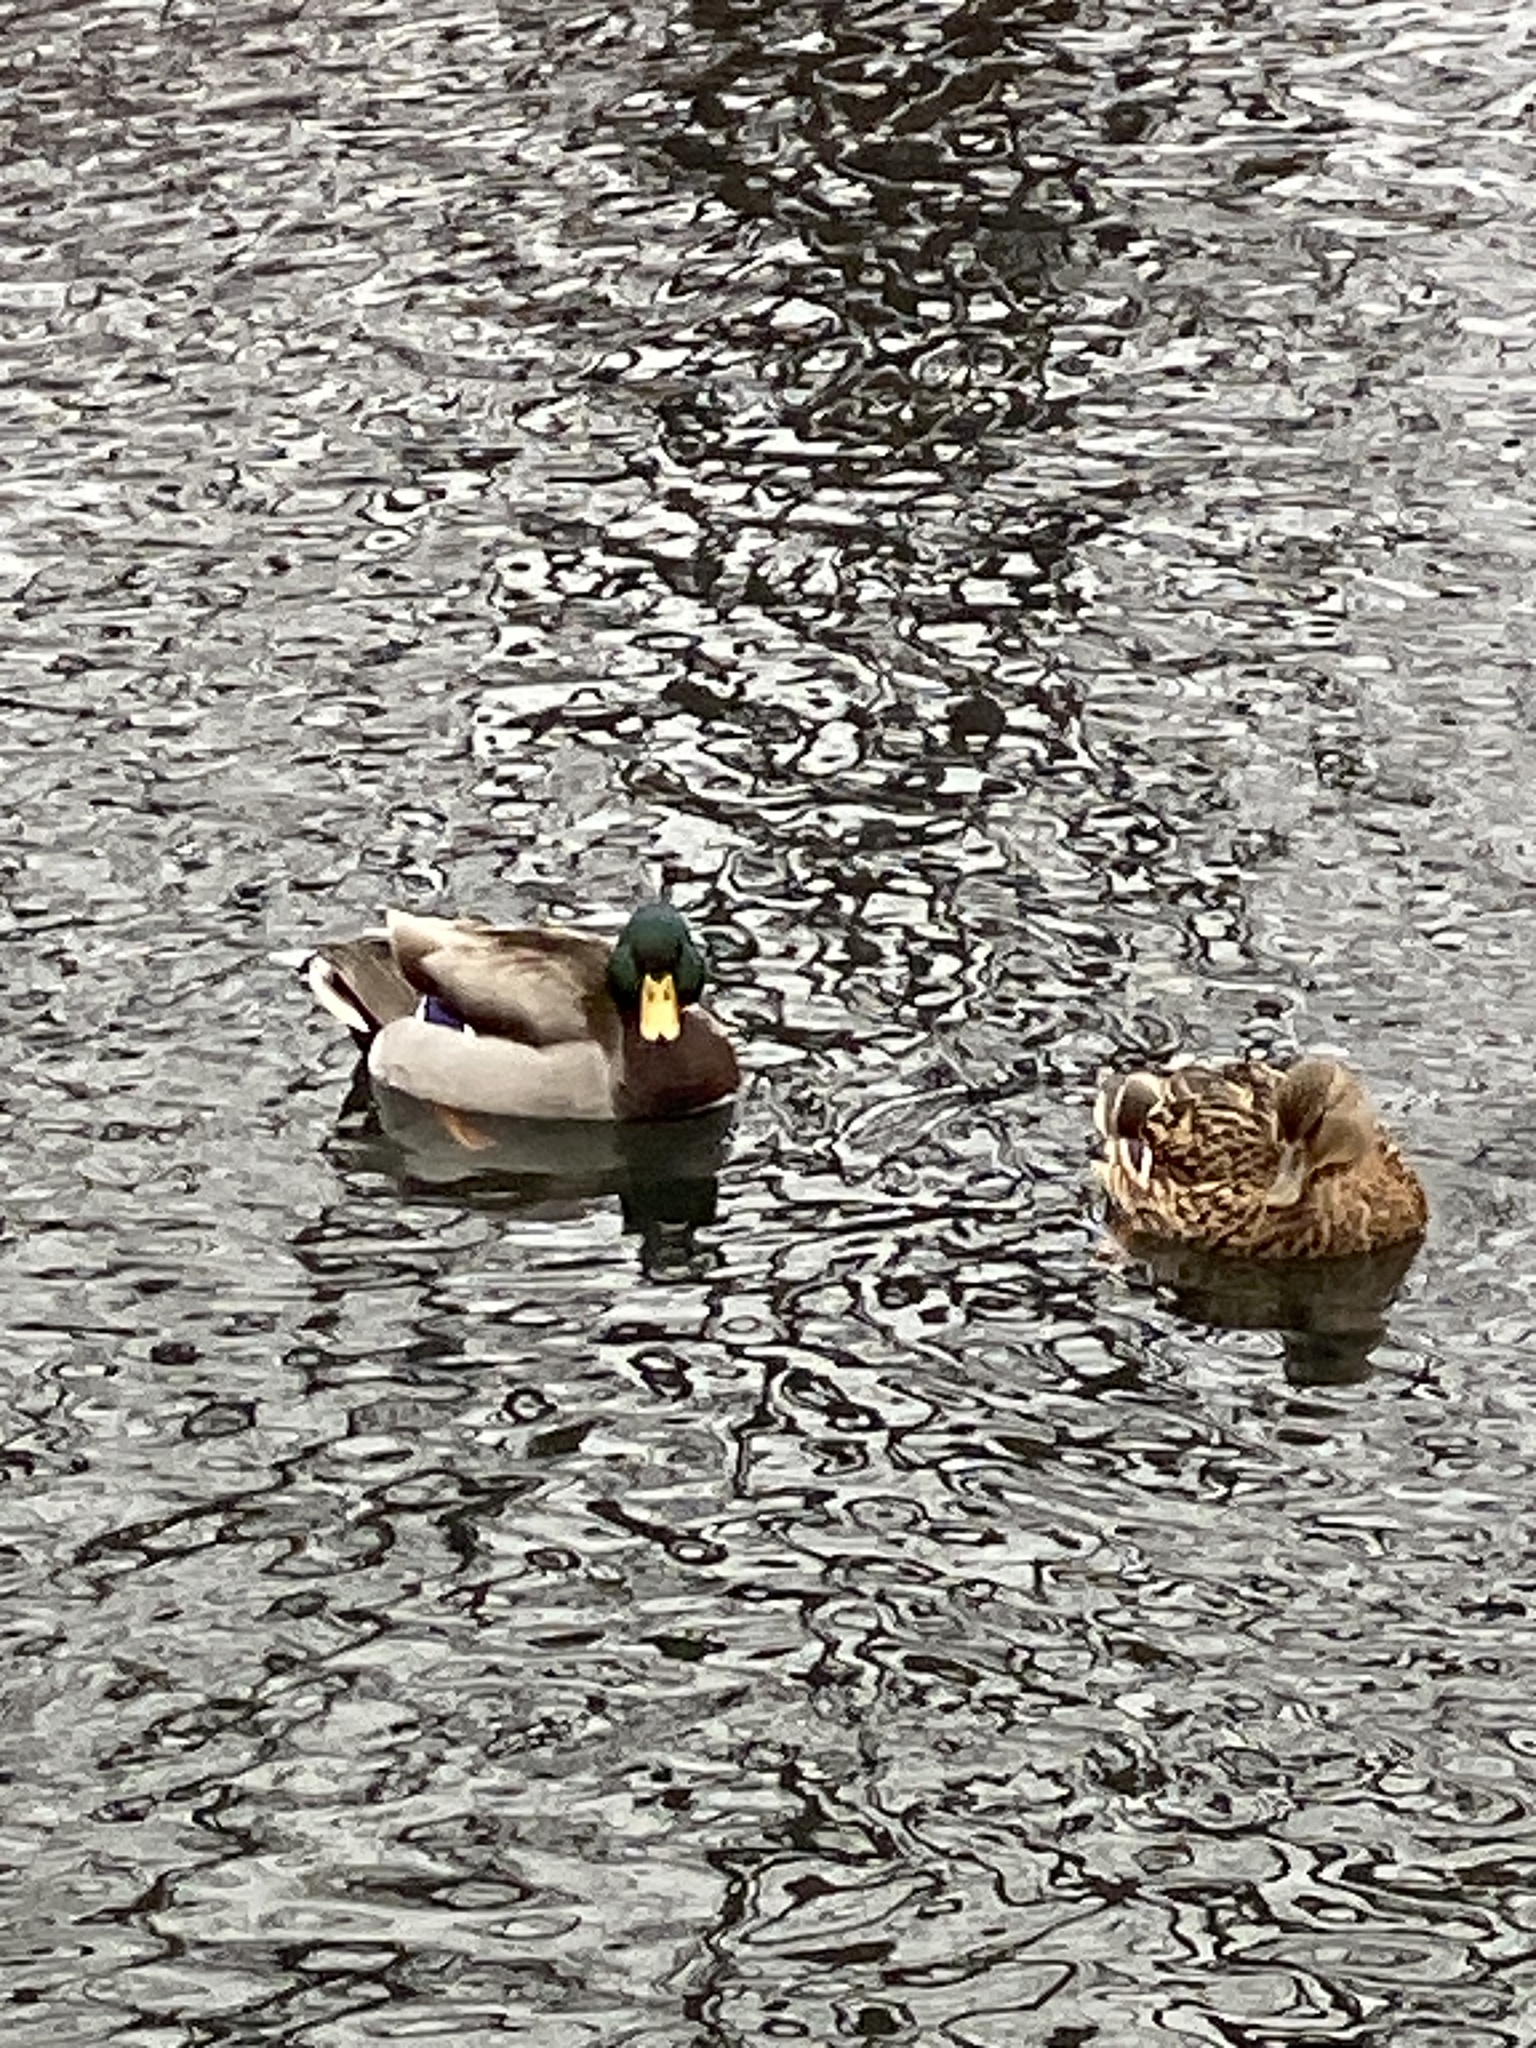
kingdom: Animalia
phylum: Chordata
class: Aves
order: Anseriformes
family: Anatidae
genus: Anas
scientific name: Anas platyrhynchos
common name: Mallard
